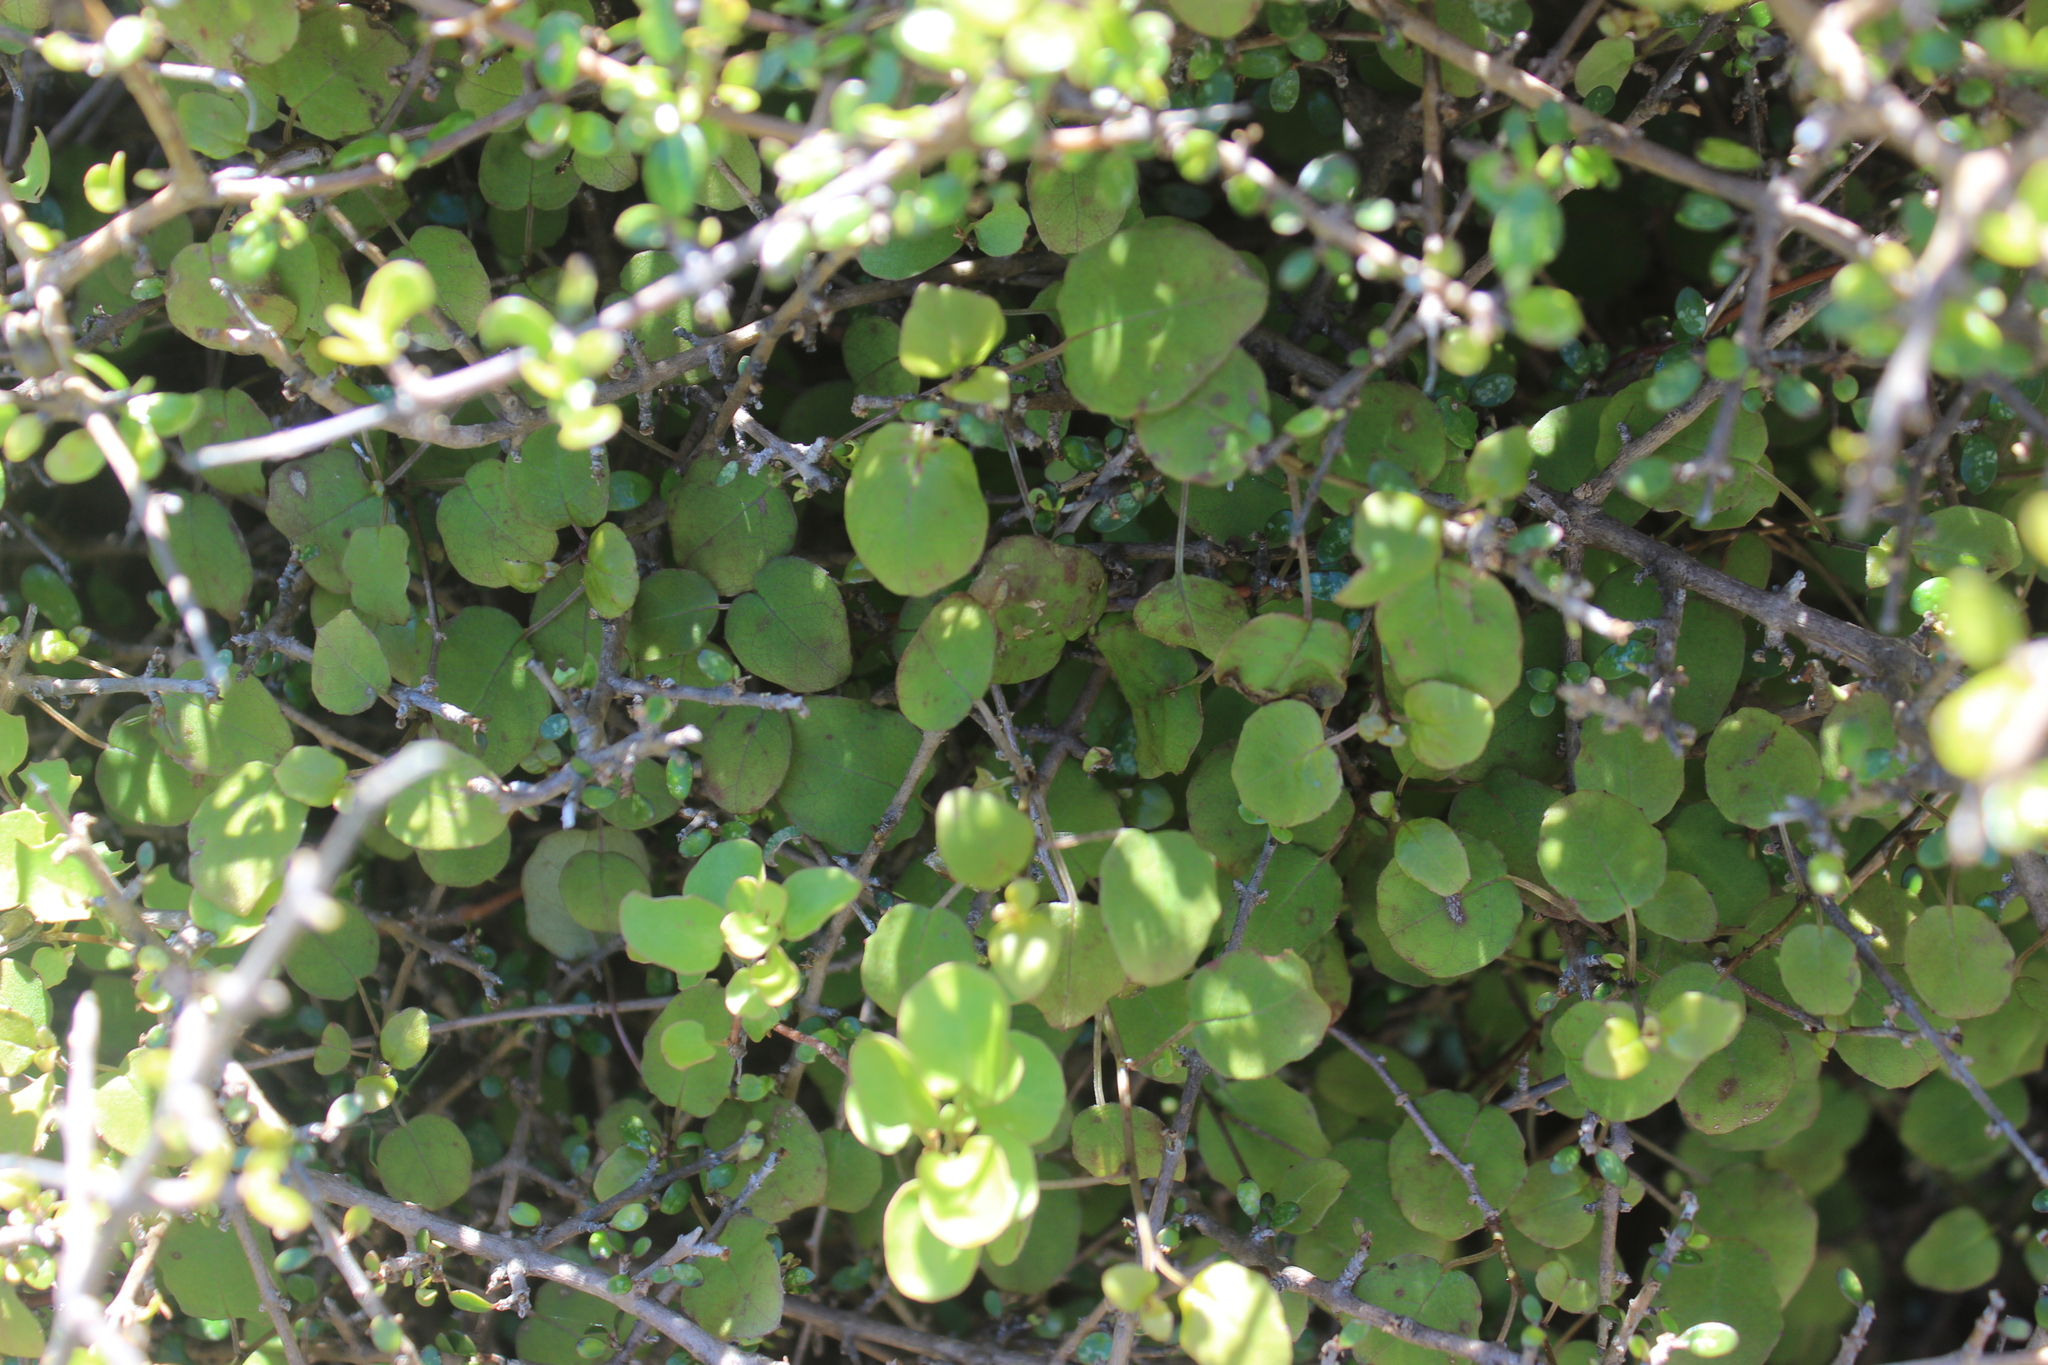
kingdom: Plantae
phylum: Tracheophyta
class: Magnoliopsida
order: Myrtales
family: Onagraceae
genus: Fuchsia
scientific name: Fuchsia perscandens
